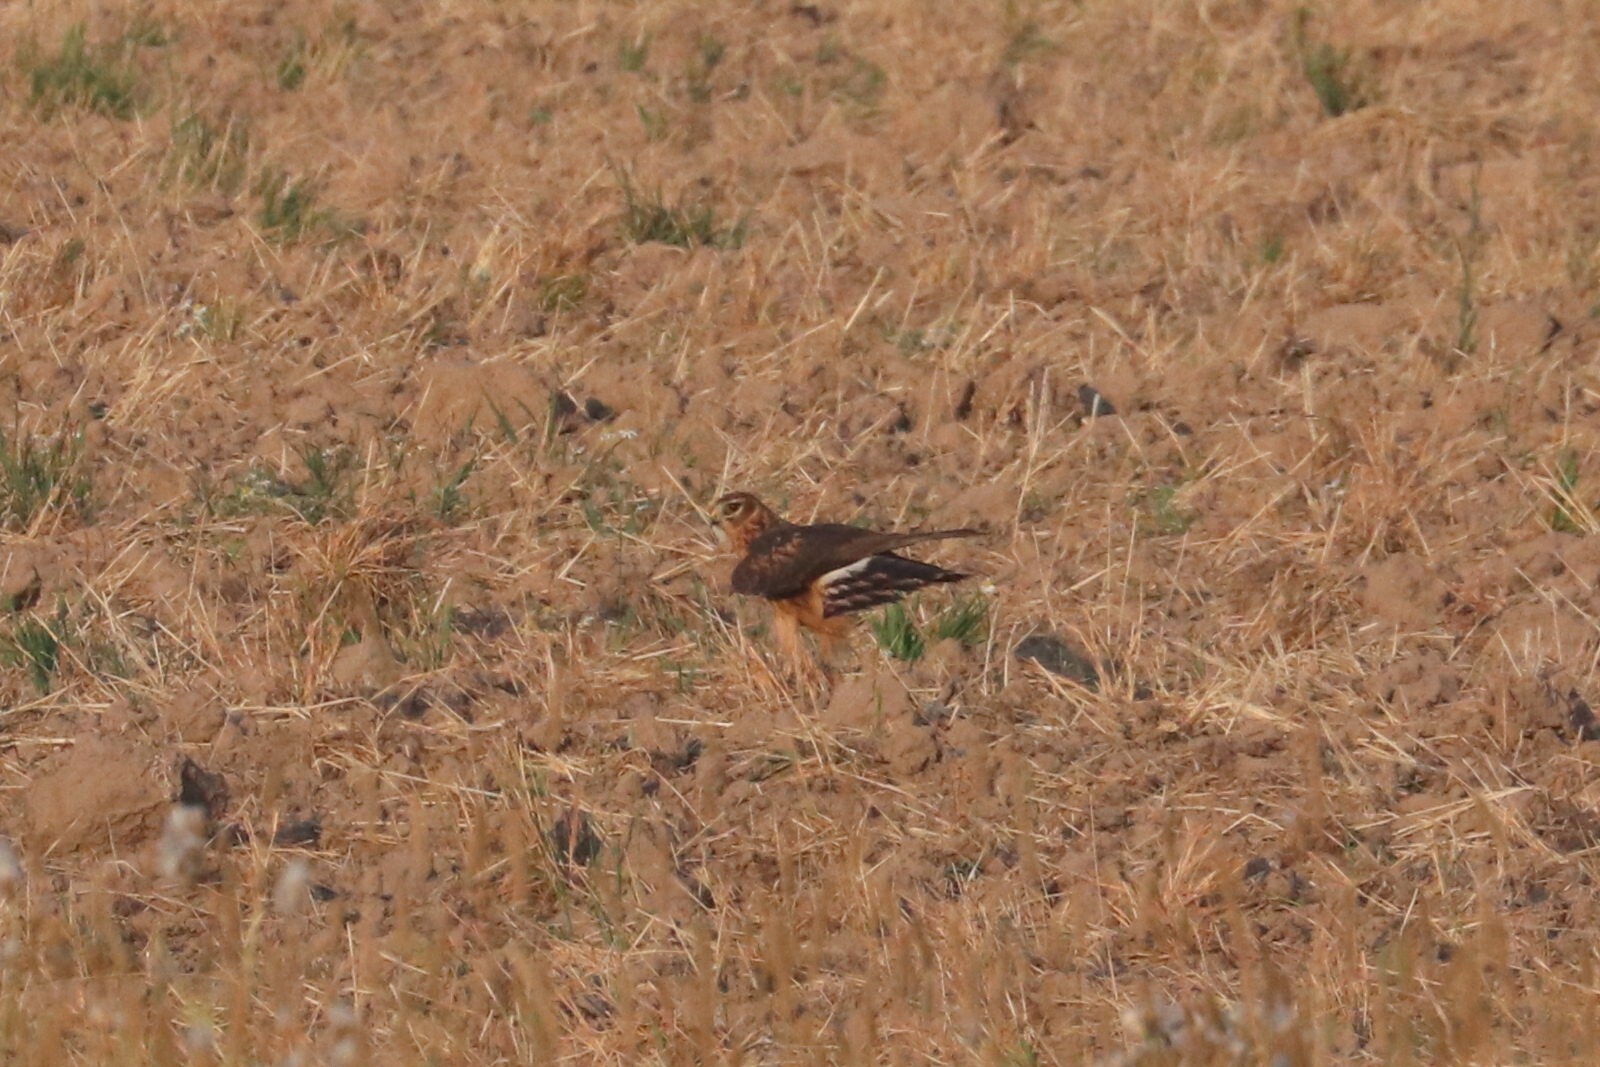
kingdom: Animalia
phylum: Chordata
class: Aves
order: Accipitriformes
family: Accipitridae
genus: Circus
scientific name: Circus cyaneus
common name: Hen harrier
